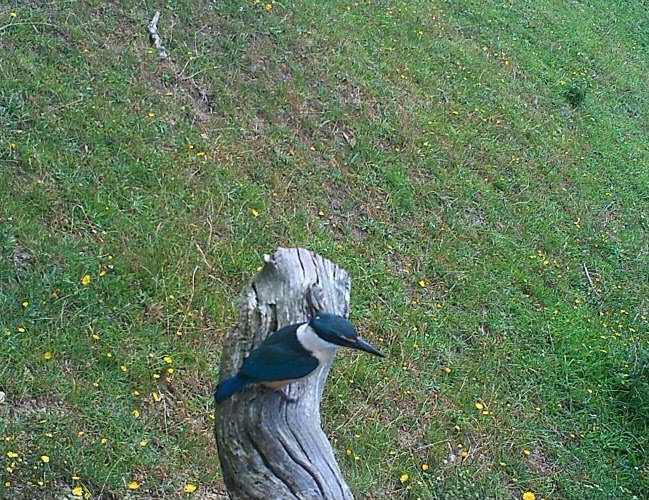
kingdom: Animalia
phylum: Chordata
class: Aves
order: Coraciiformes
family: Alcedinidae
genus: Todiramphus
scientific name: Todiramphus sanctus
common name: Sacred kingfisher
